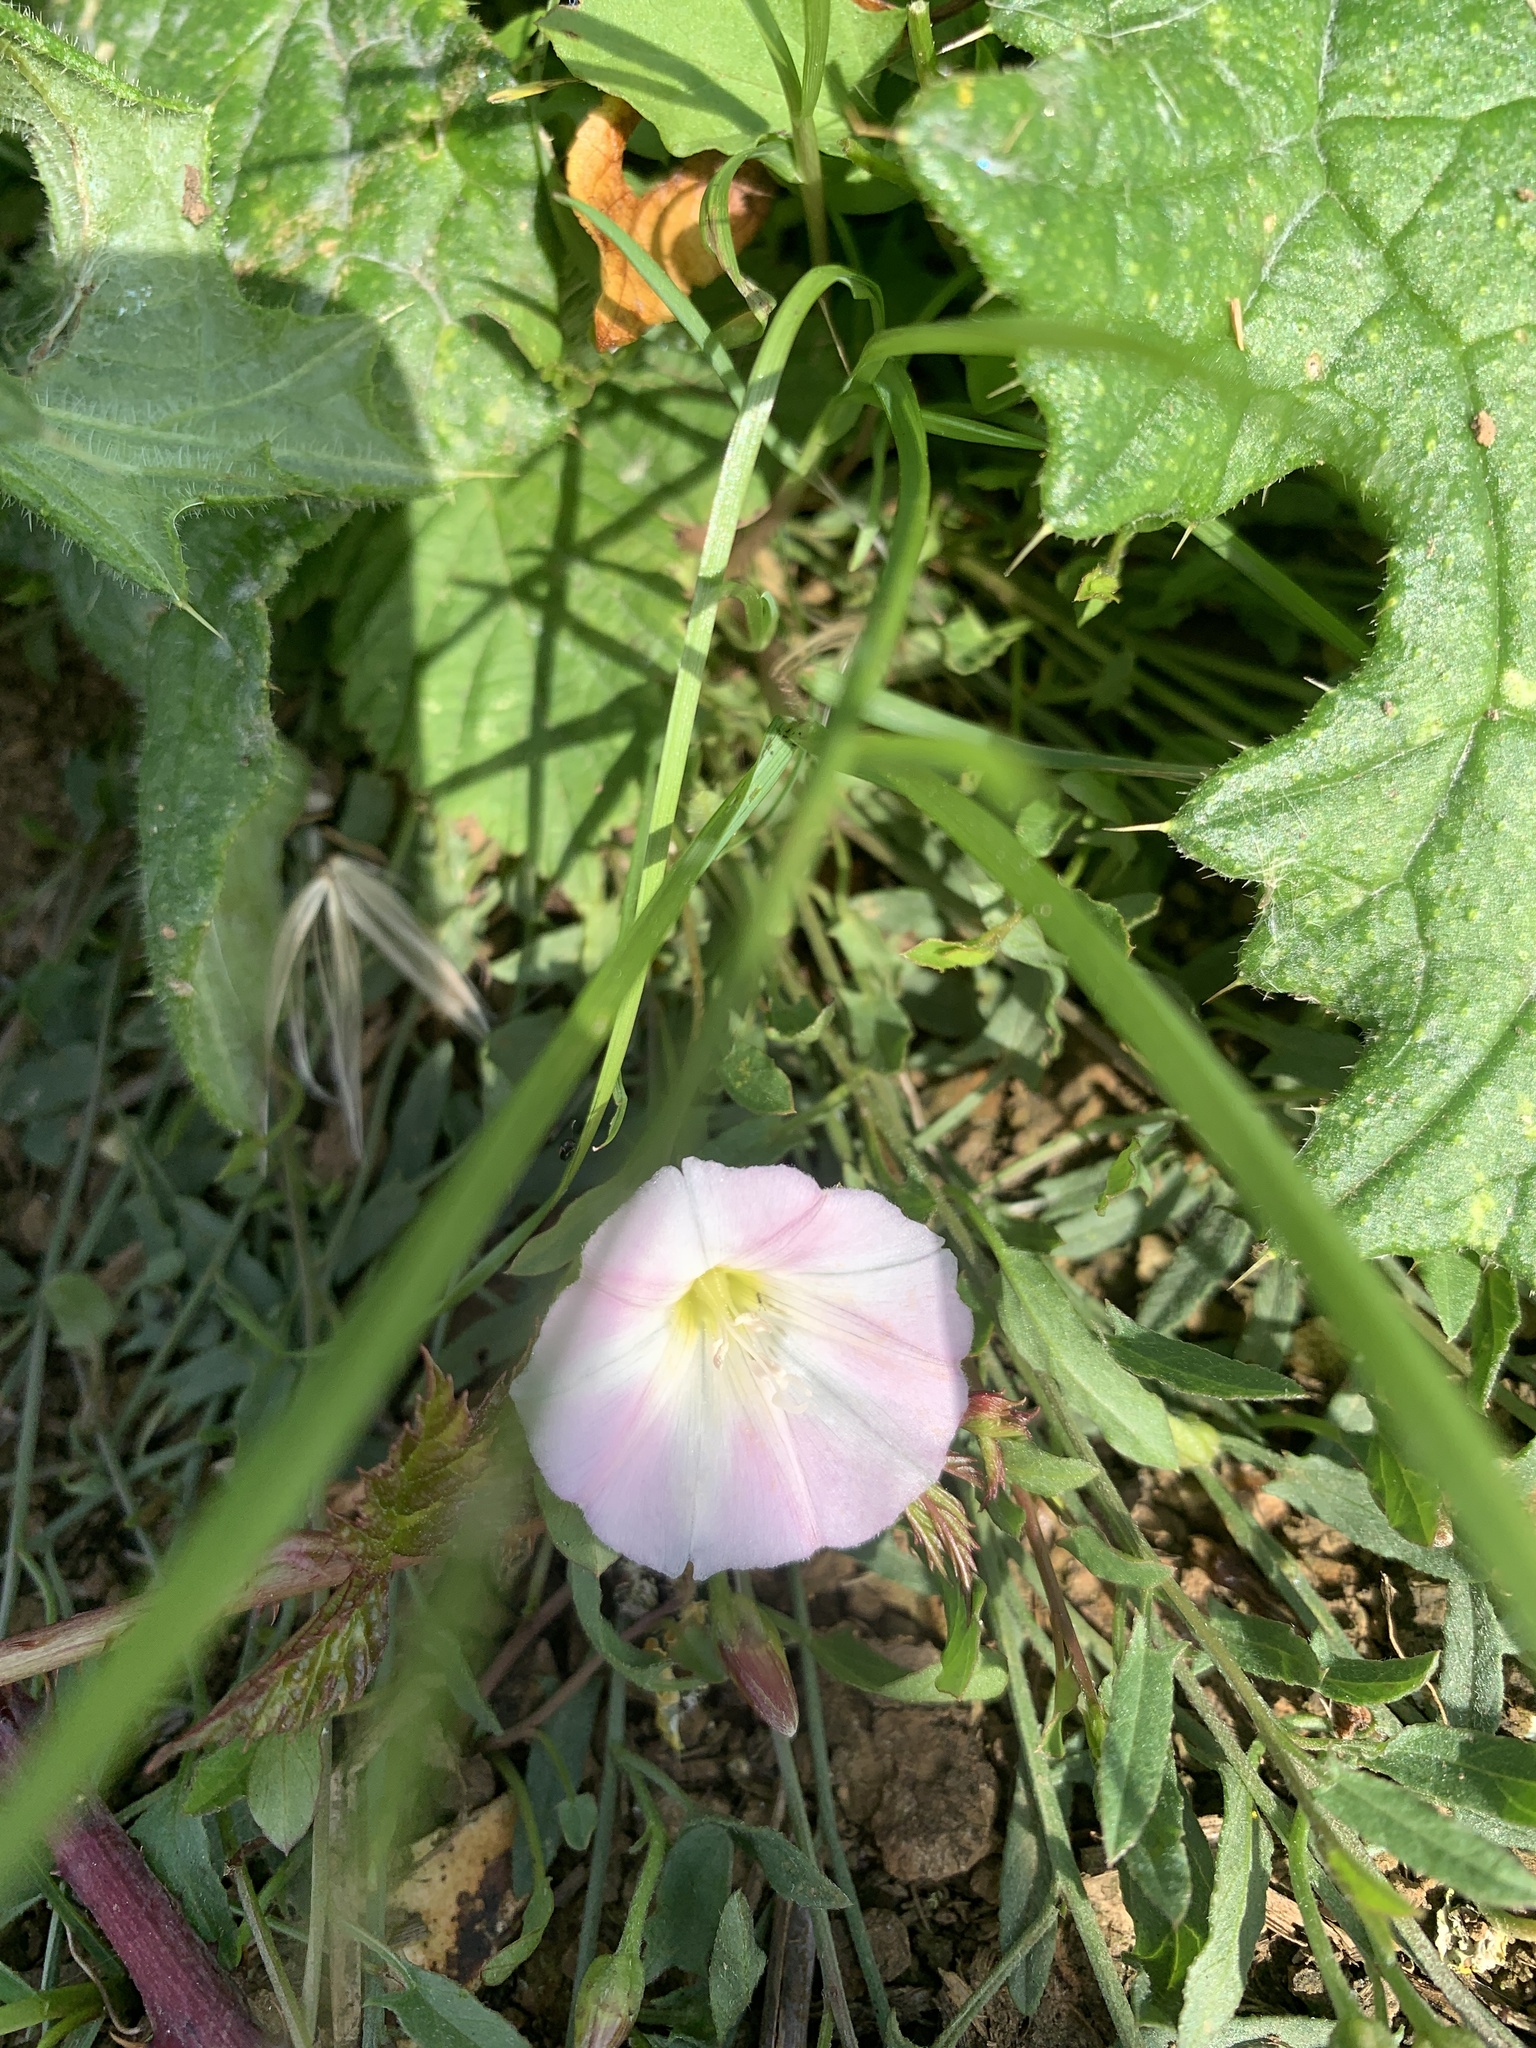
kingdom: Plantae
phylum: Tracheophyta
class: Magnoliopsida
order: Solanales
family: Convolvulaceae
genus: Convolvulus
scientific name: Convolvulus arvensis
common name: Field bindweed
